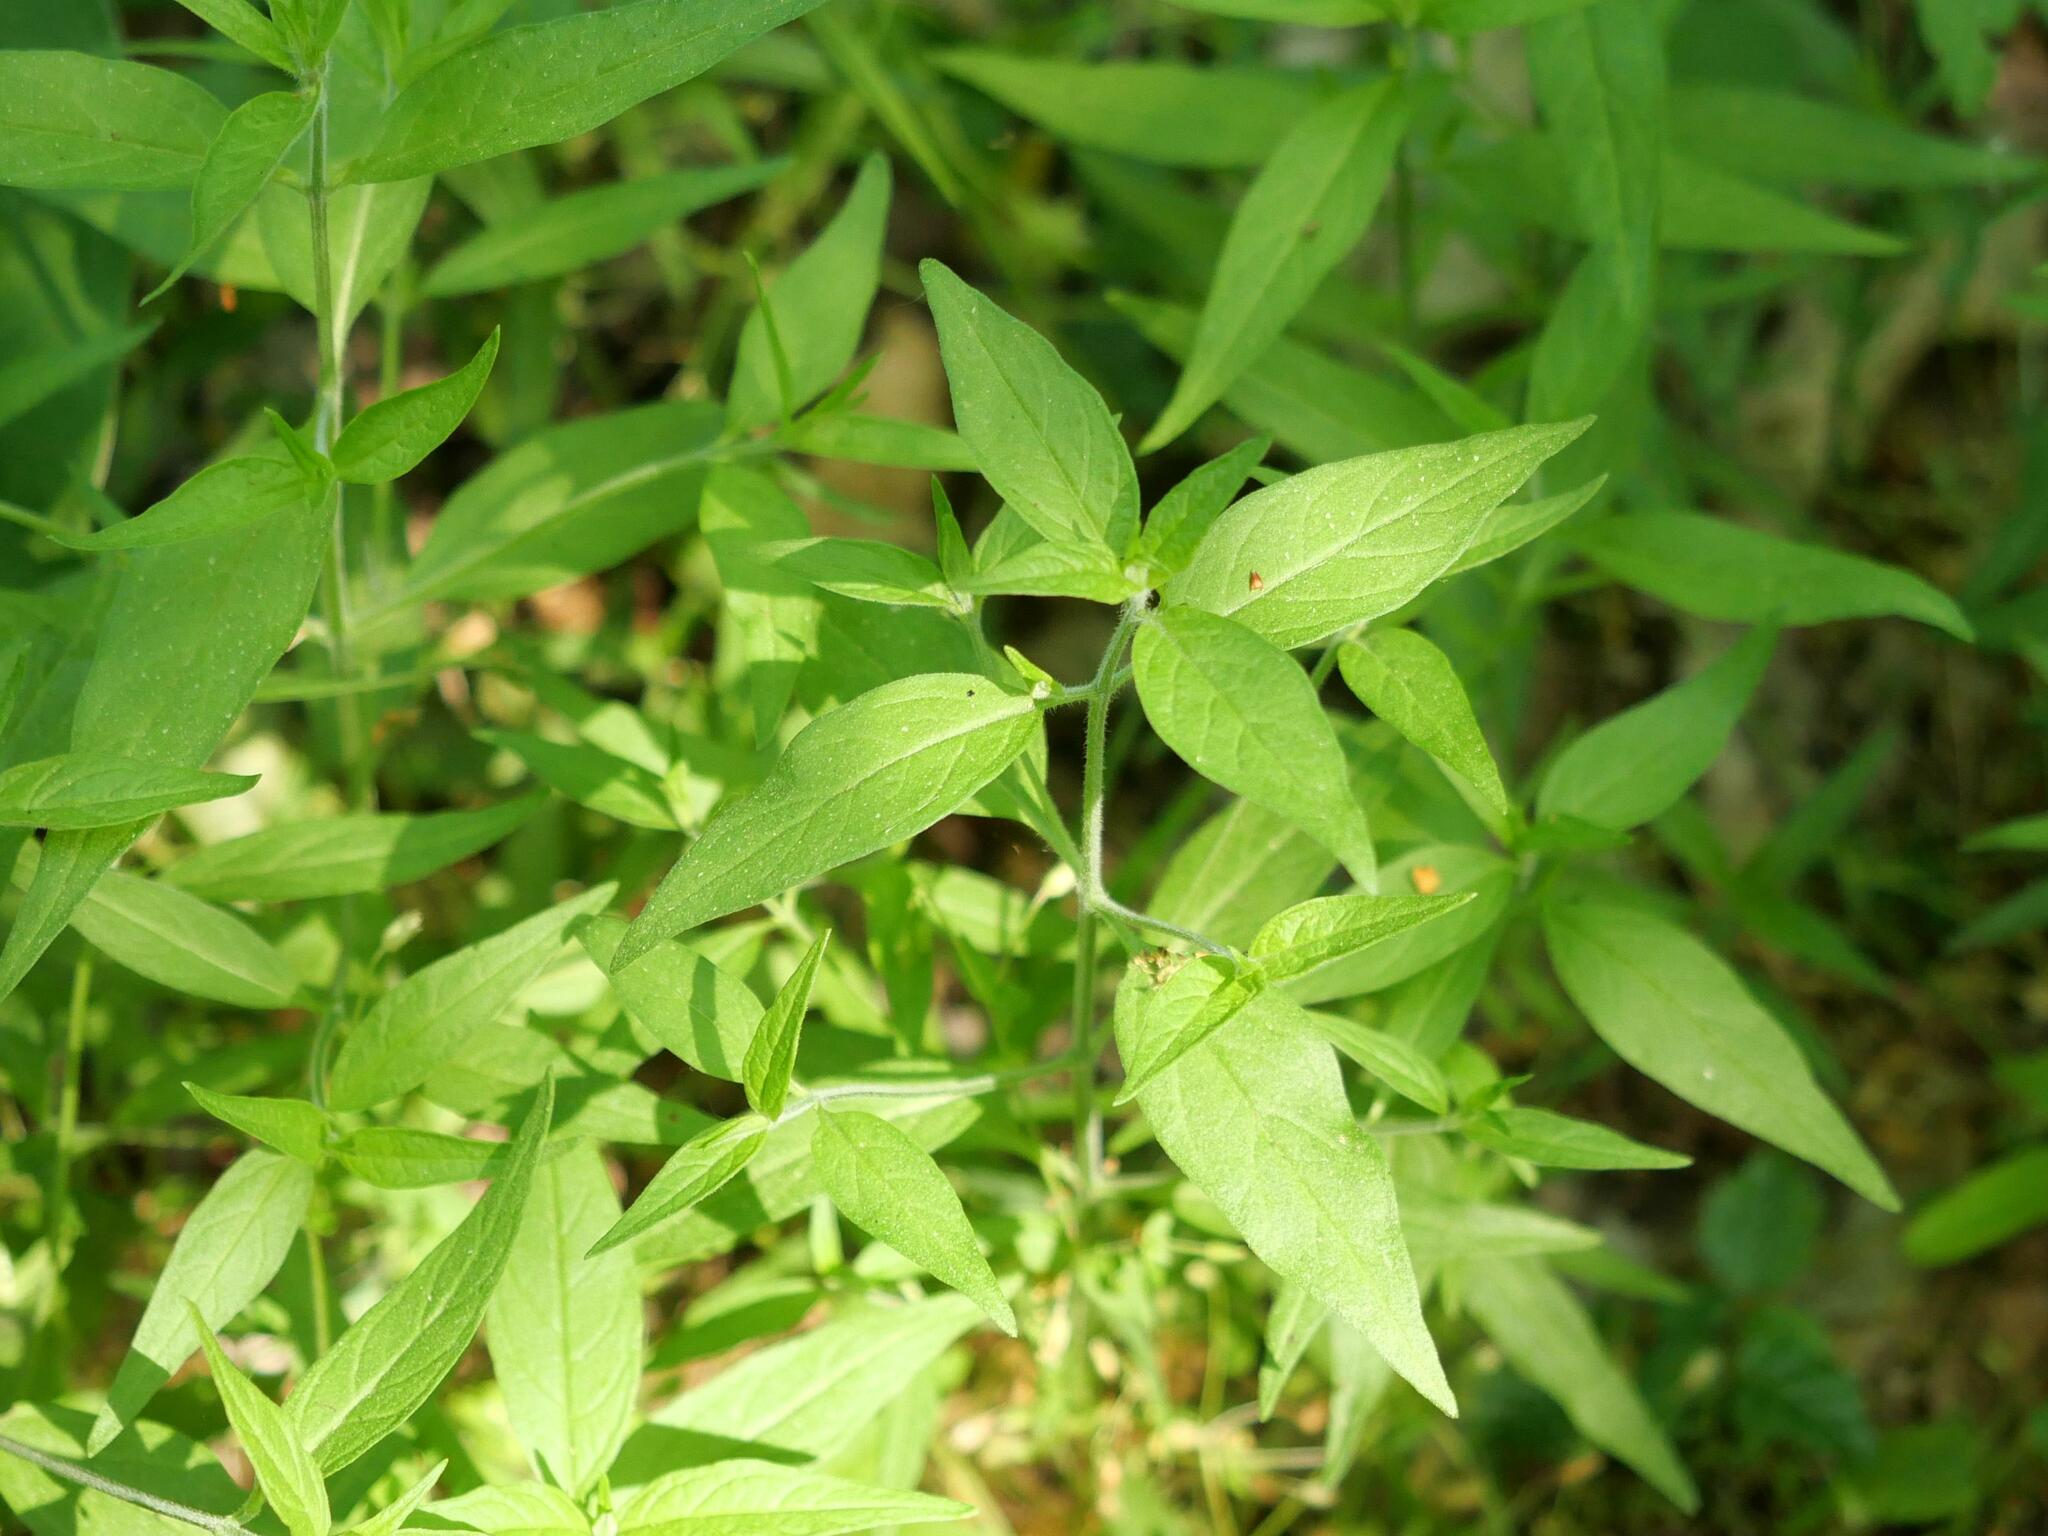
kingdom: Plantae
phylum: Tracheophyta
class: Magnoliopsida
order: Lamiales
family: Orobanchaceae
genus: Melampyrum
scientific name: Melampyrum nemorosum
